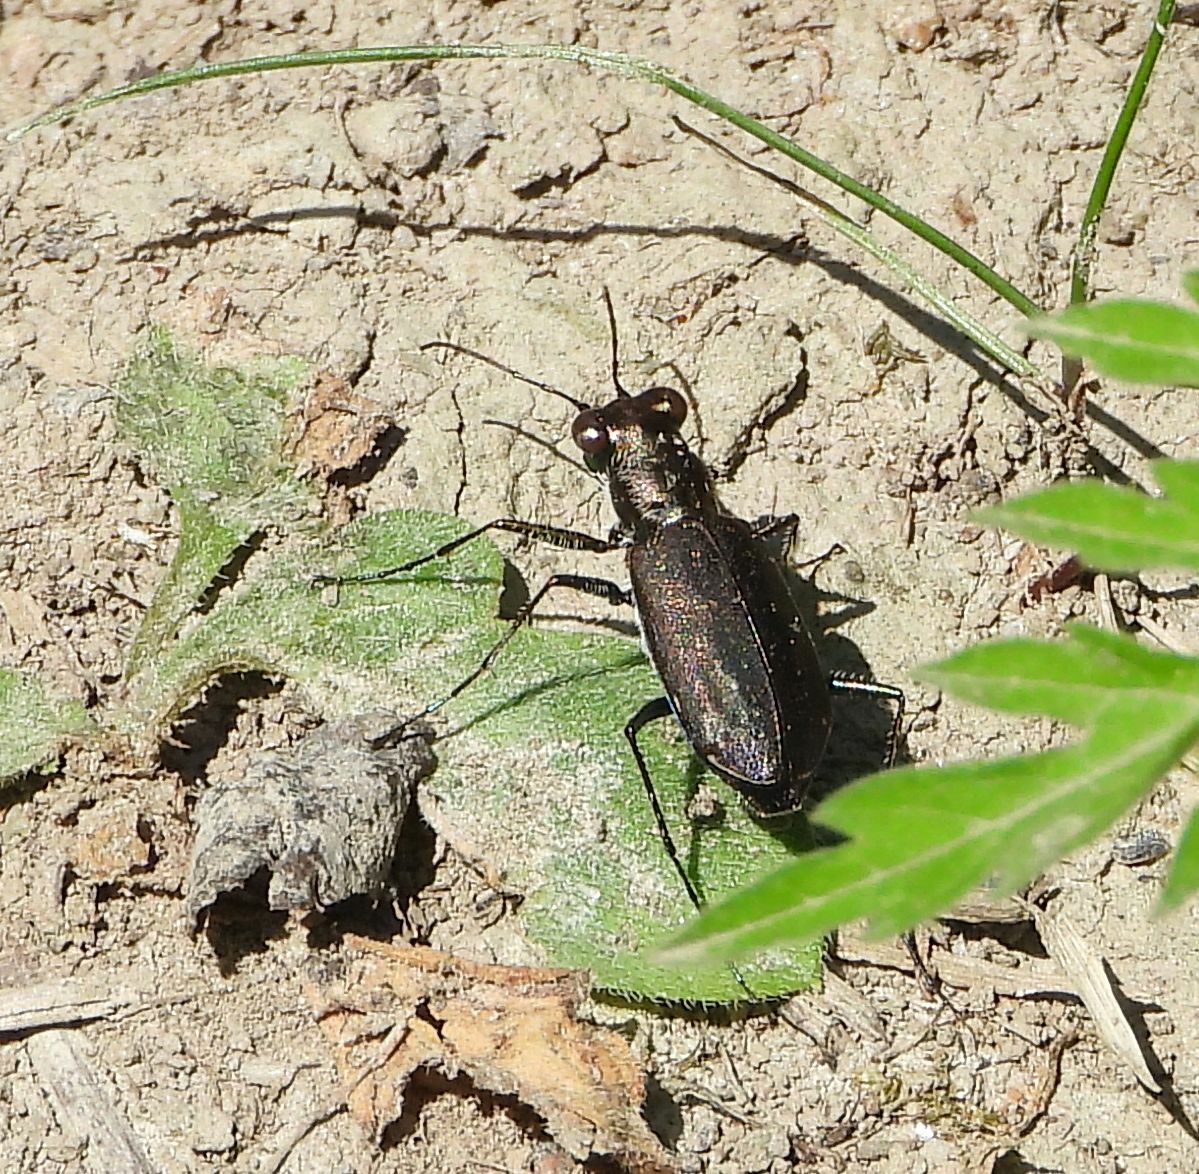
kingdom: Animalia
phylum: Arthropoda
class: Insecta
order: Coleoptera
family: Carabidae
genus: Cicindela
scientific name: Cicindela punctulata
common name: Punctured tiger beetle
